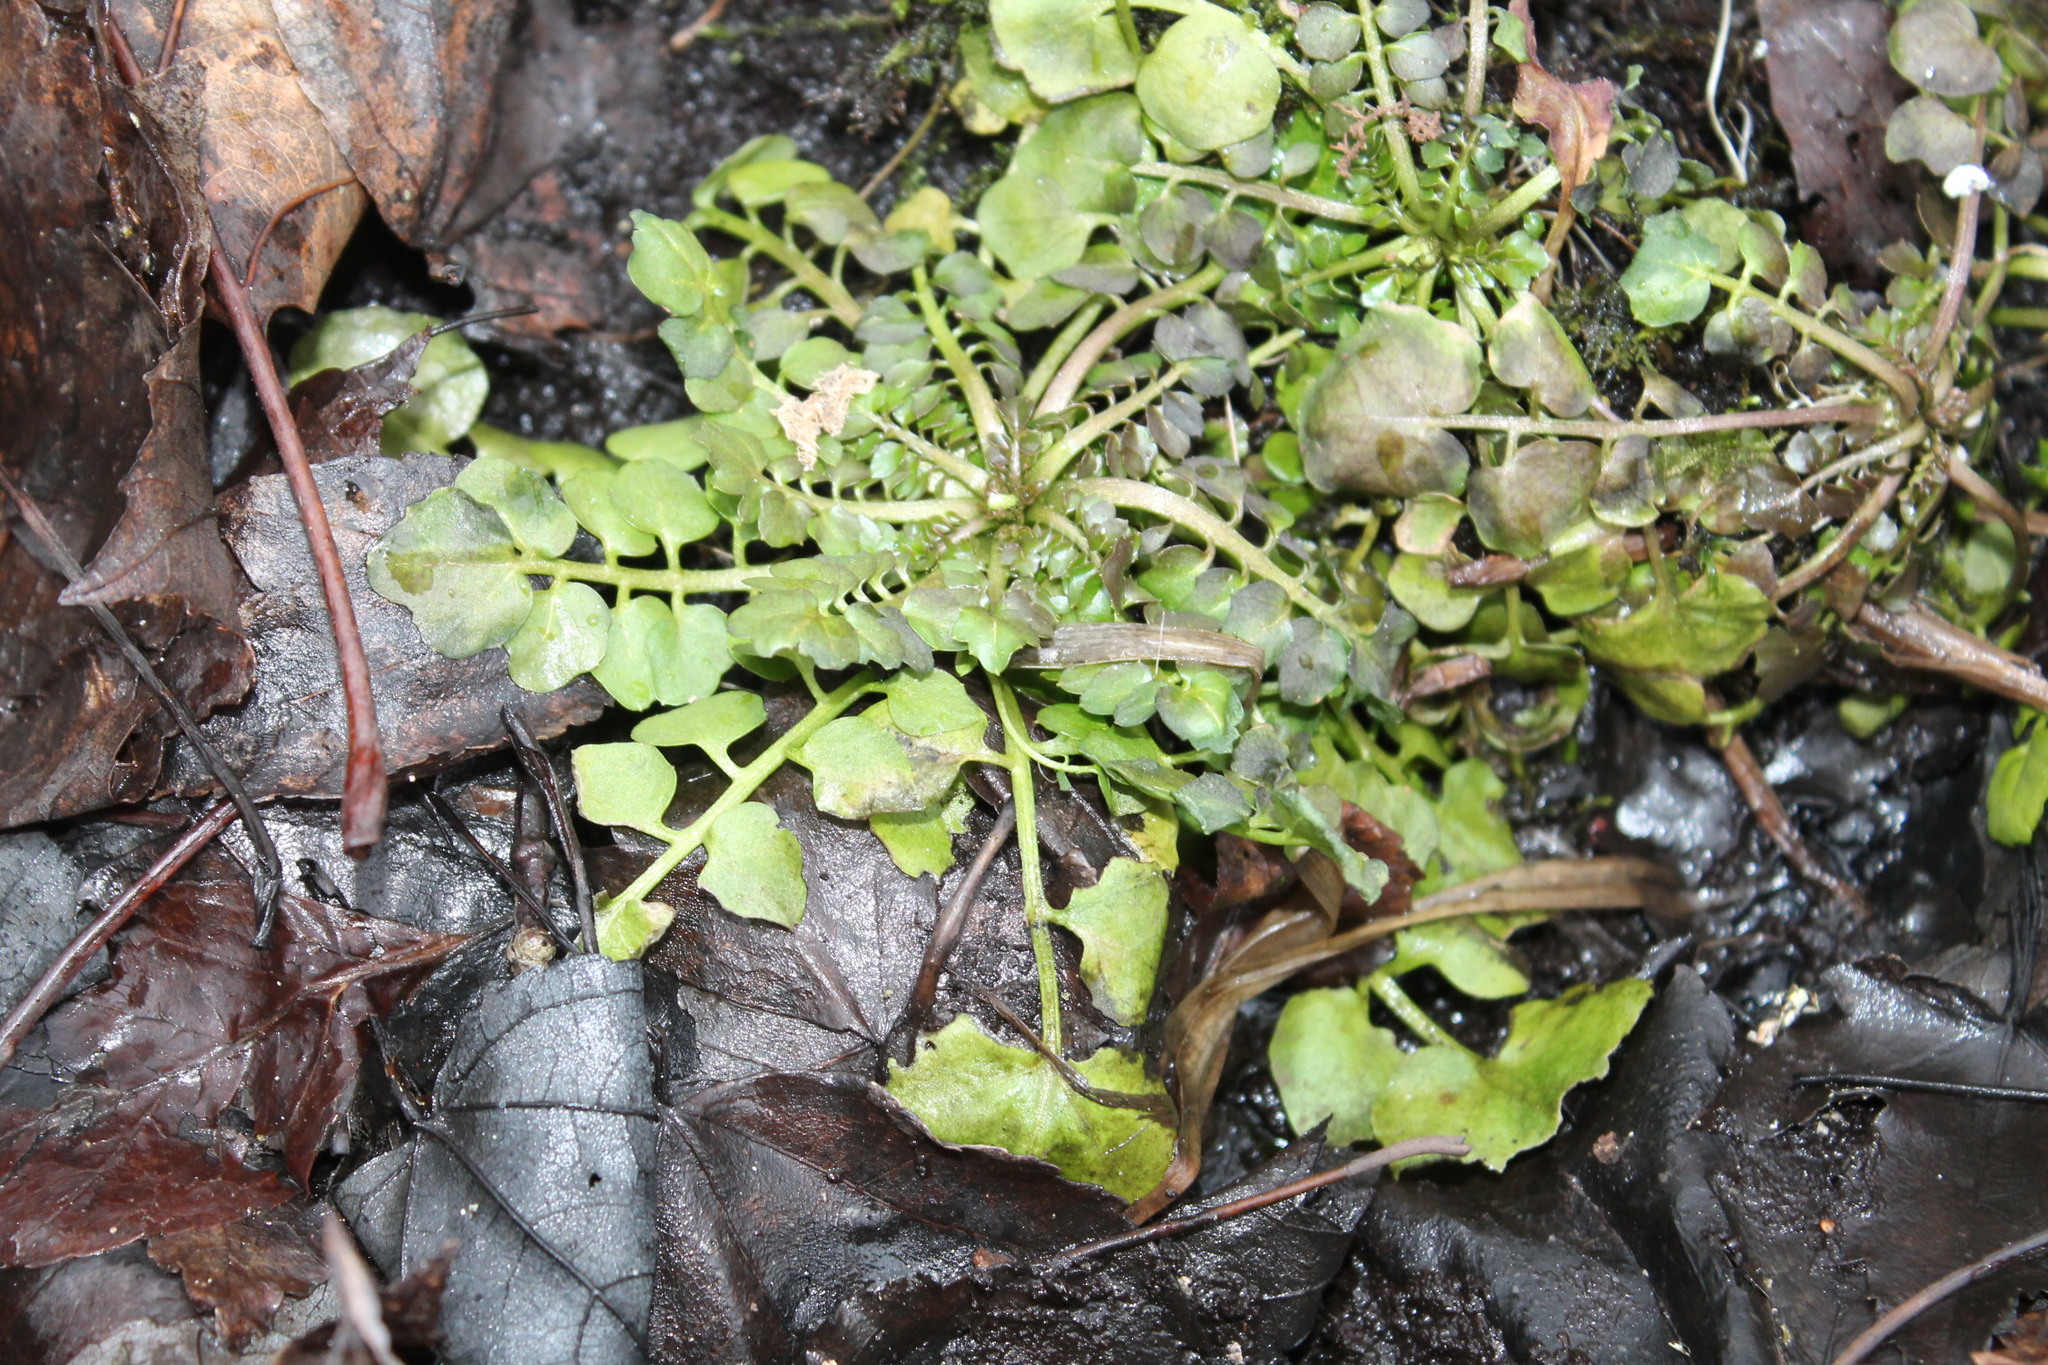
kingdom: Plantae
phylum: Tracheophyta
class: Magnoliopsida
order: Brassicales
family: Brassicaceae
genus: Cardamine
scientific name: Cardamine hirsuta
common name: Hairy bittercress
